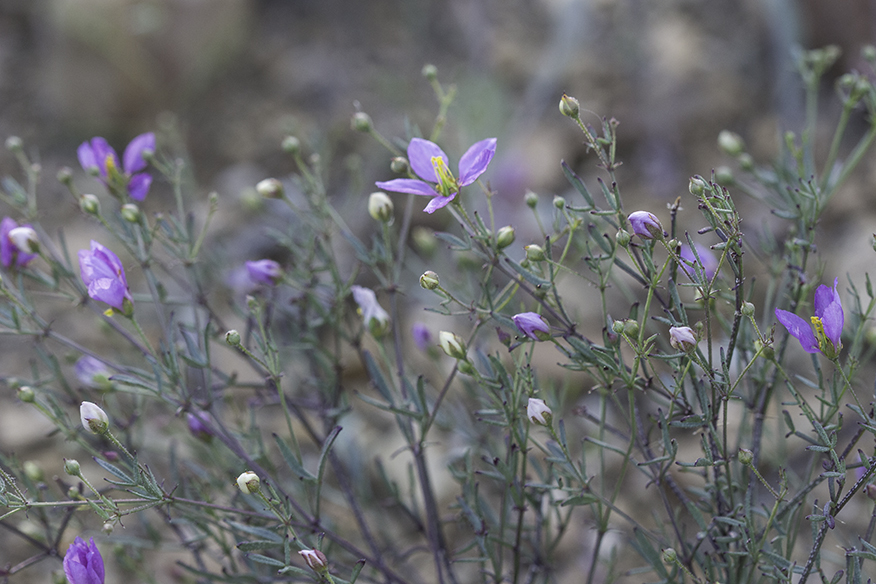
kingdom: Plantae
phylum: Tracheophyta
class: Magnoliopsida
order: Zygophyllales
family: Zygophyllaceae
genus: Fagonia
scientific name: Fagonia laevis
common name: California fagonbush
